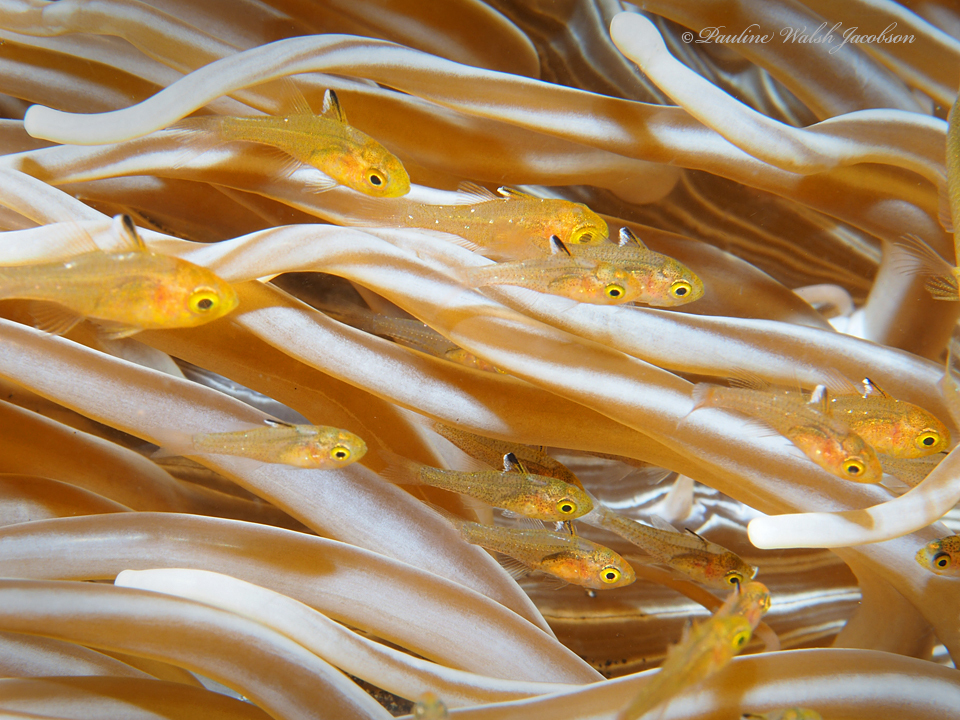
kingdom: Animalia
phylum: Chordata
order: Perciformes
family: Apogonidae
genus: Ostorhinchus
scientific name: Ostorhinchus hoevenii
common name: Flag-fin cardinal
